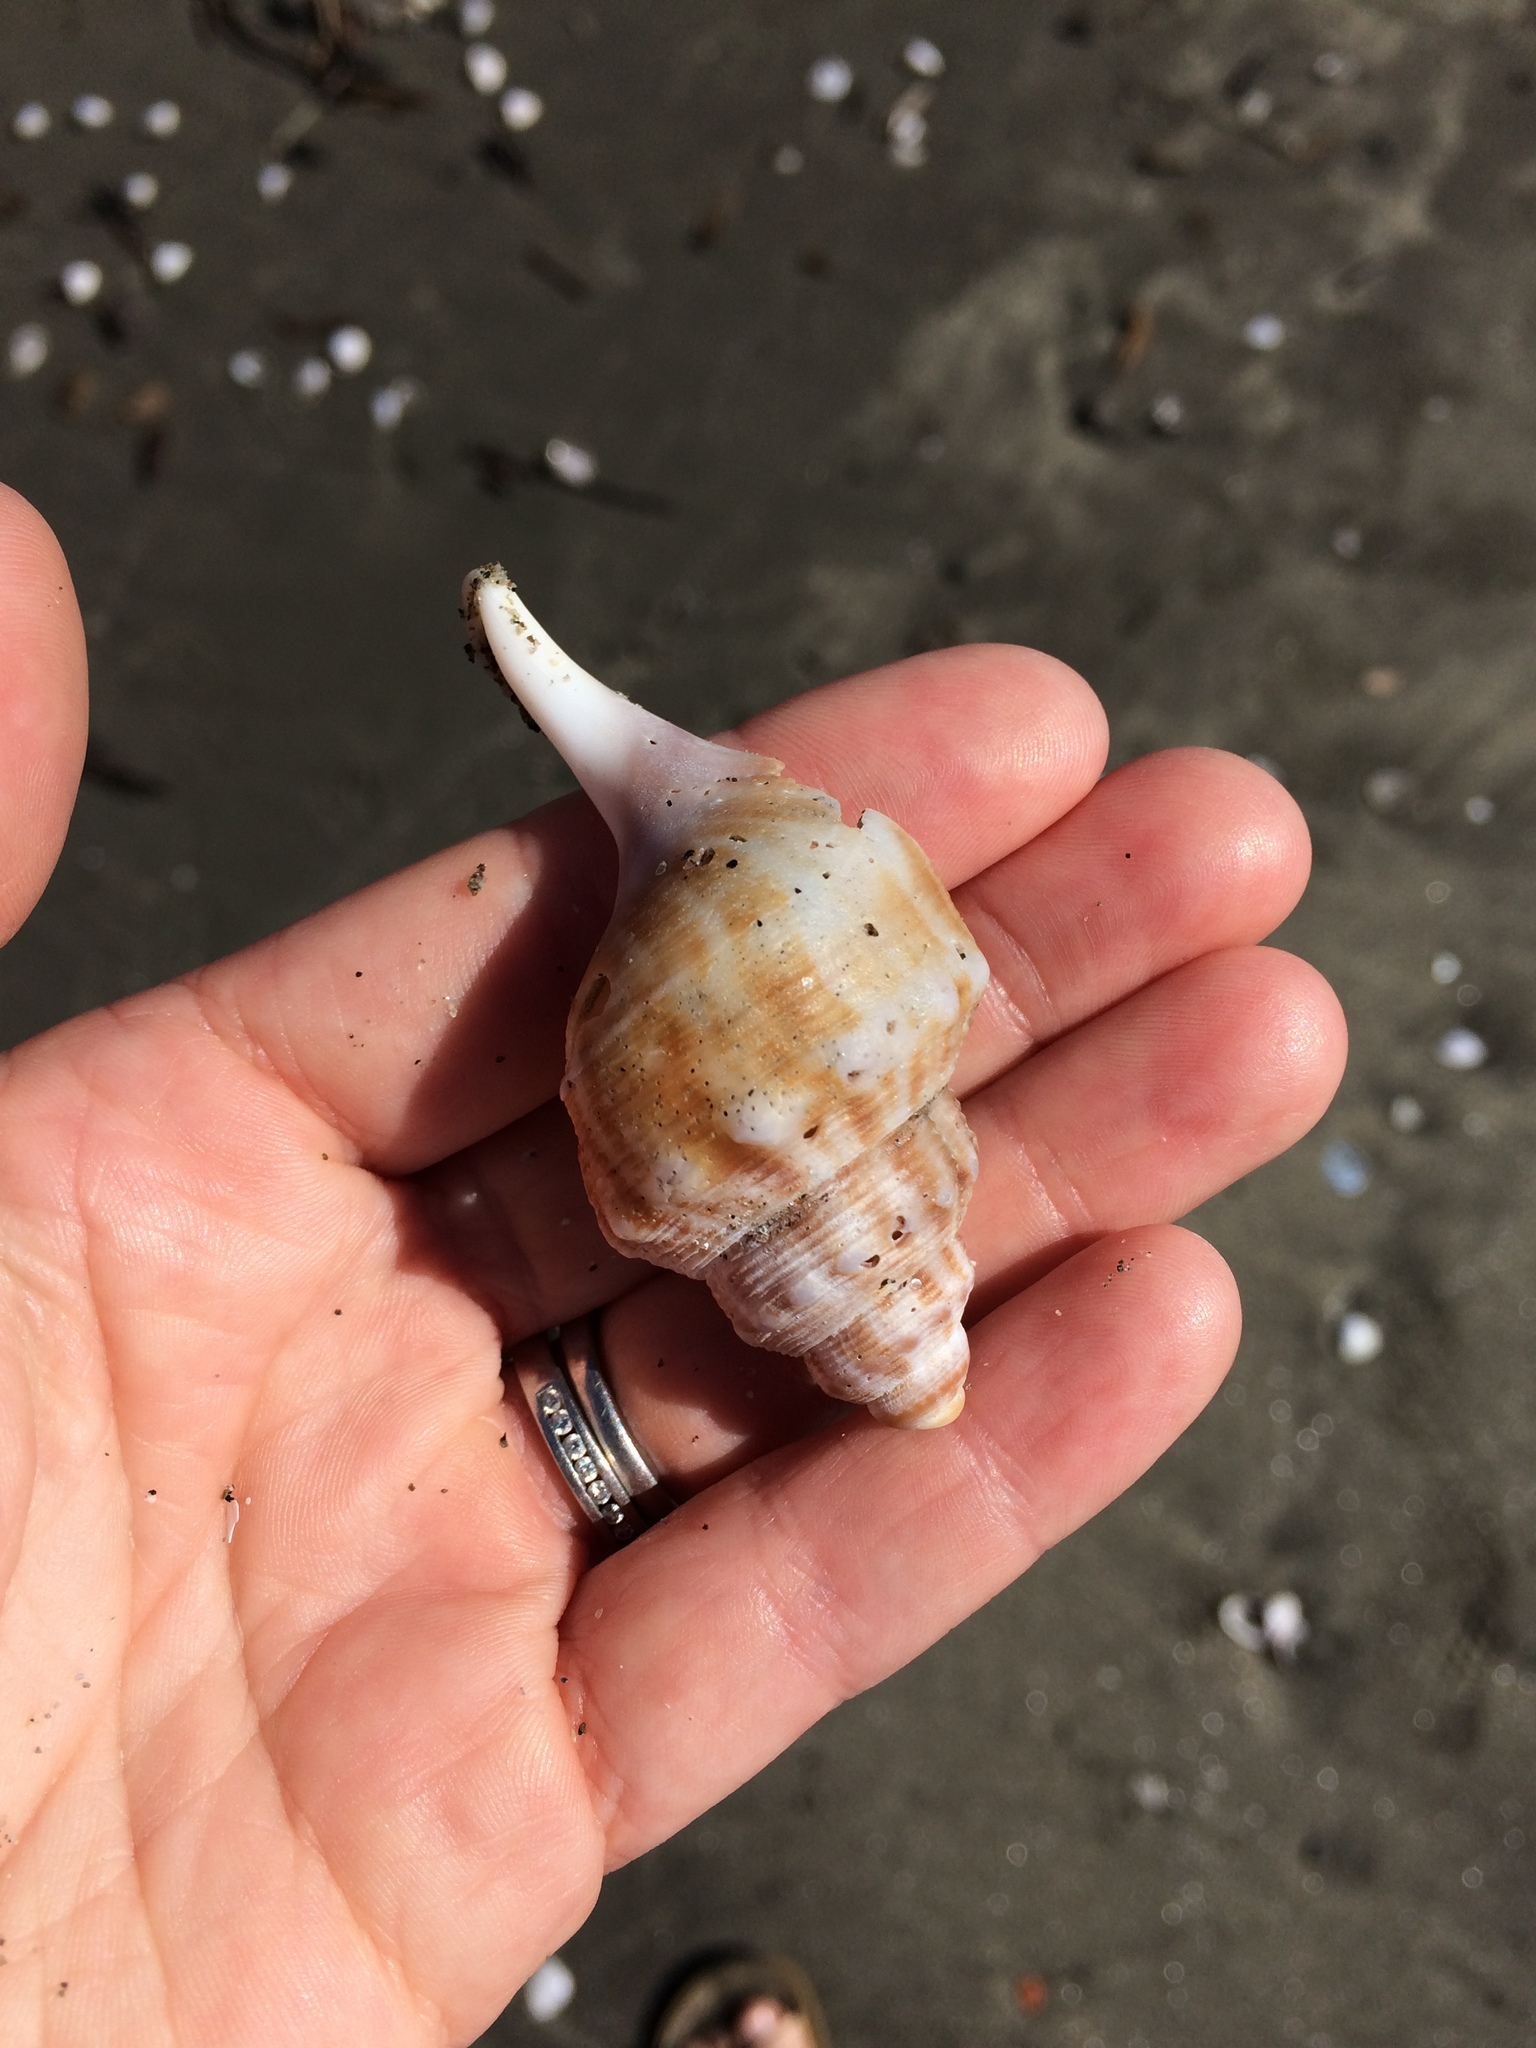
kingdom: Animalia
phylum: Mollusca
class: Gastropoda
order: Littorinimorpha
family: Struthiolariidae
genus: Struthiolaria
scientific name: Struthiolaria papulosa
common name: Large ostrich foot
